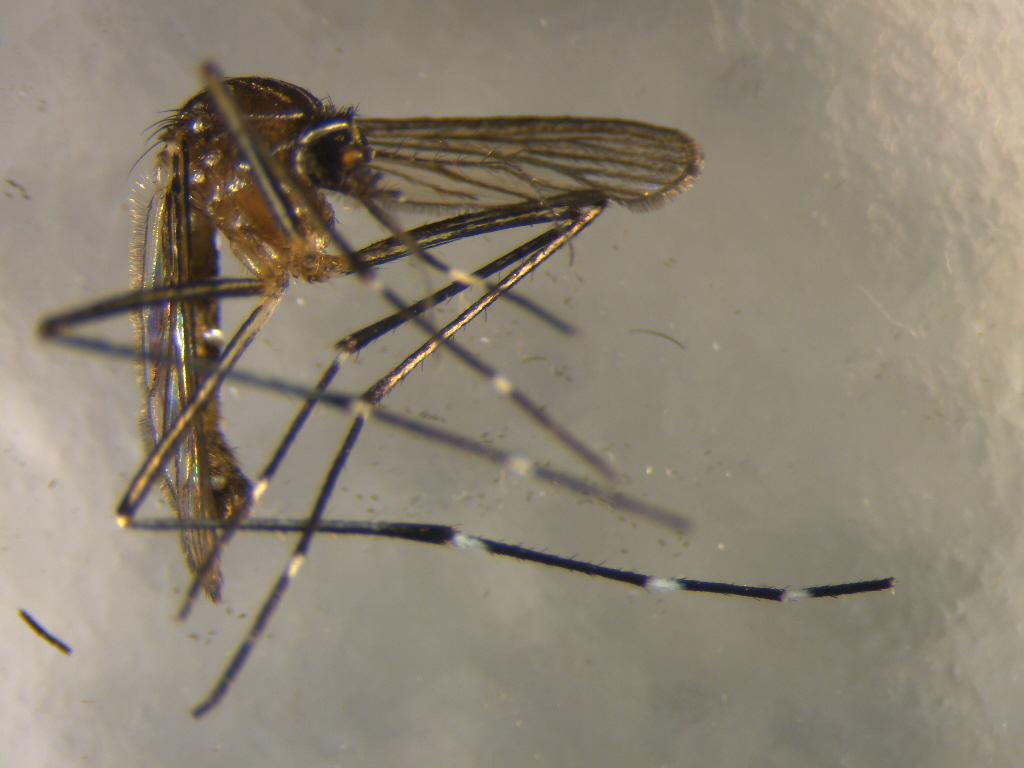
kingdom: Animalia
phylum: Arthropoda
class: Insecta
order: Diptera
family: Culicidae
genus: Aedes
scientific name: Aedes notoscriptus
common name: Australian backyard mosquito
